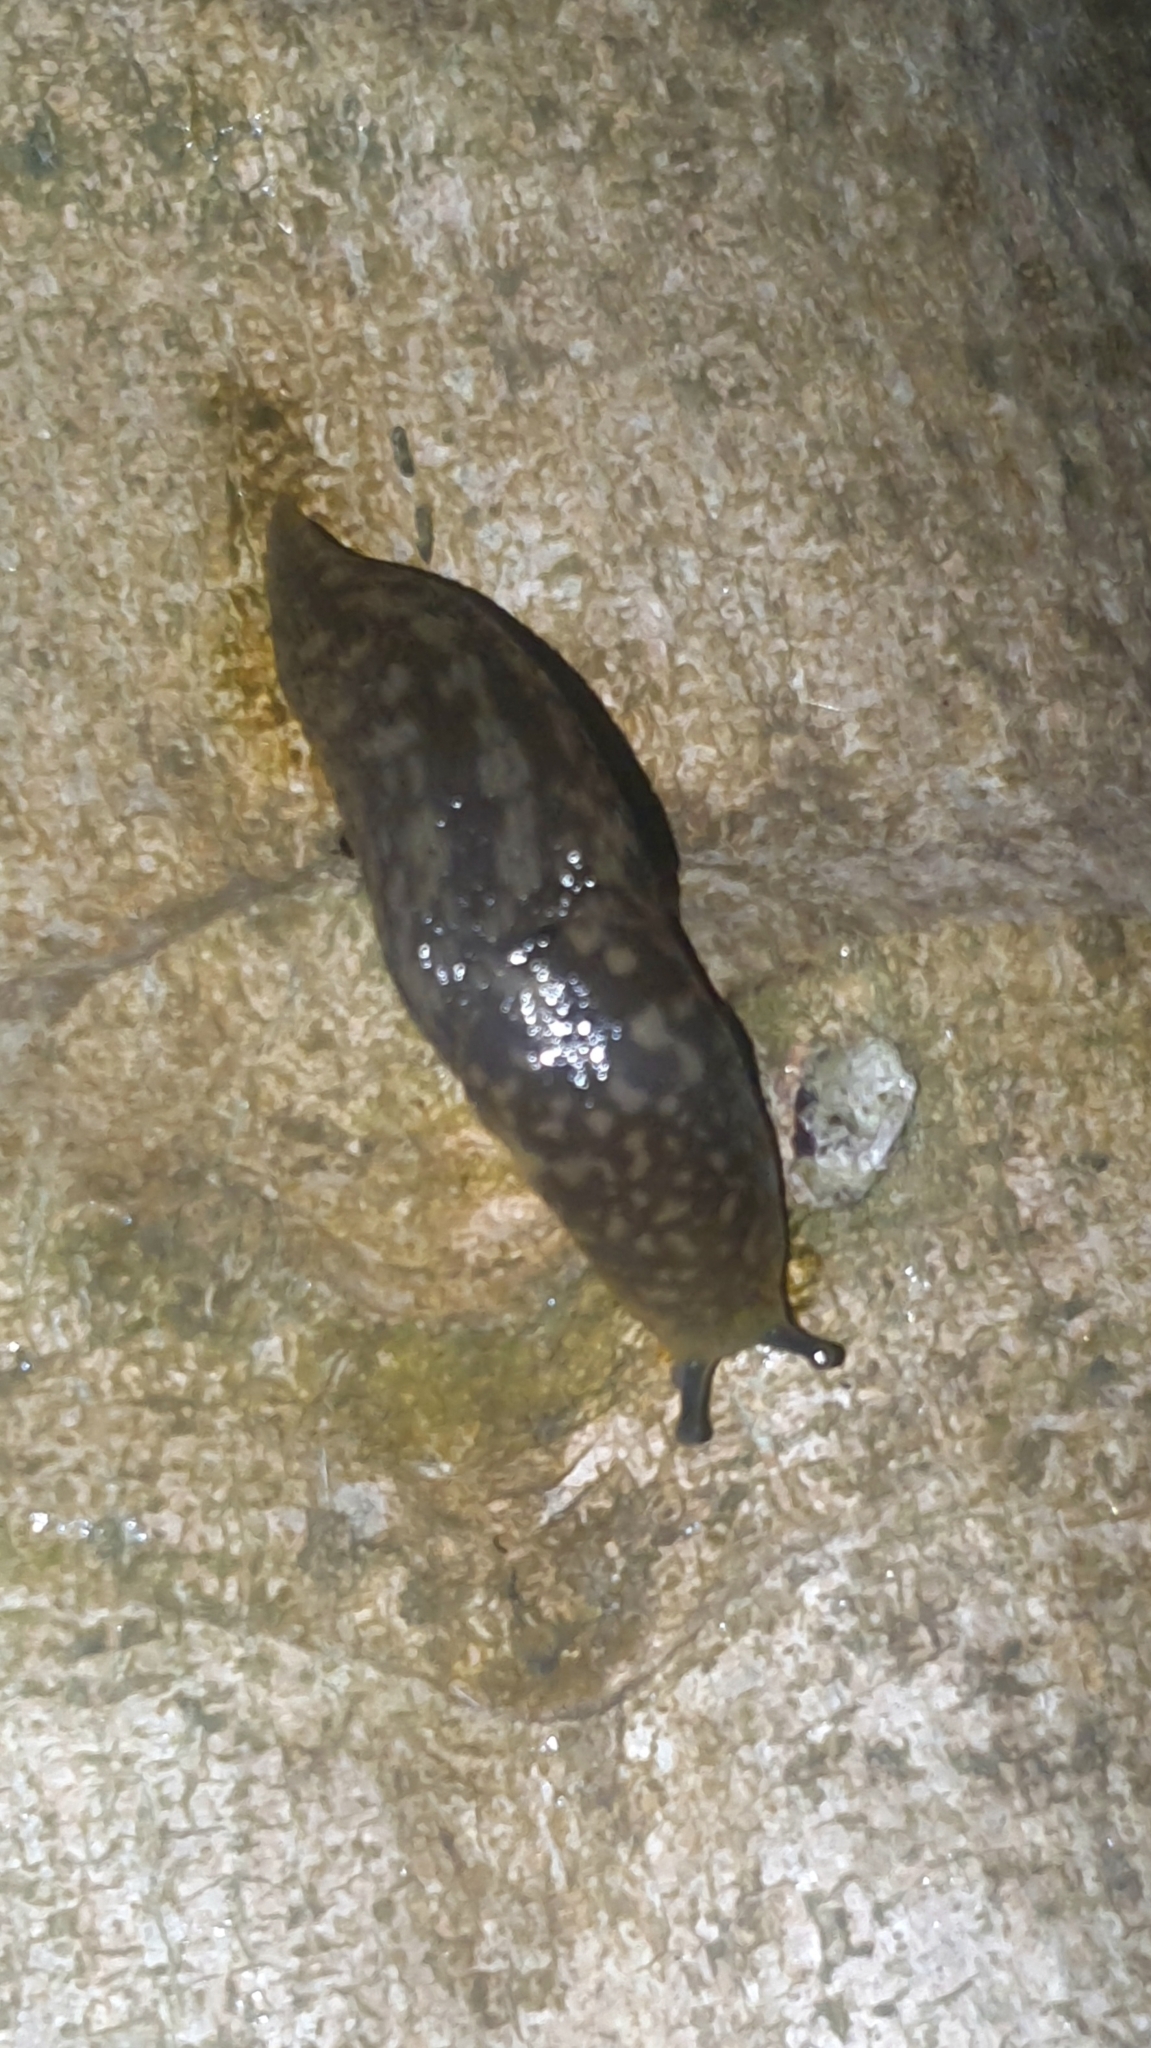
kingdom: Animalia
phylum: Mollusca
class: Gastropoda
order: Stylommatophora
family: Limacidae
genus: Limacus
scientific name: Limacus flavus
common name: Yellow gardenslug
